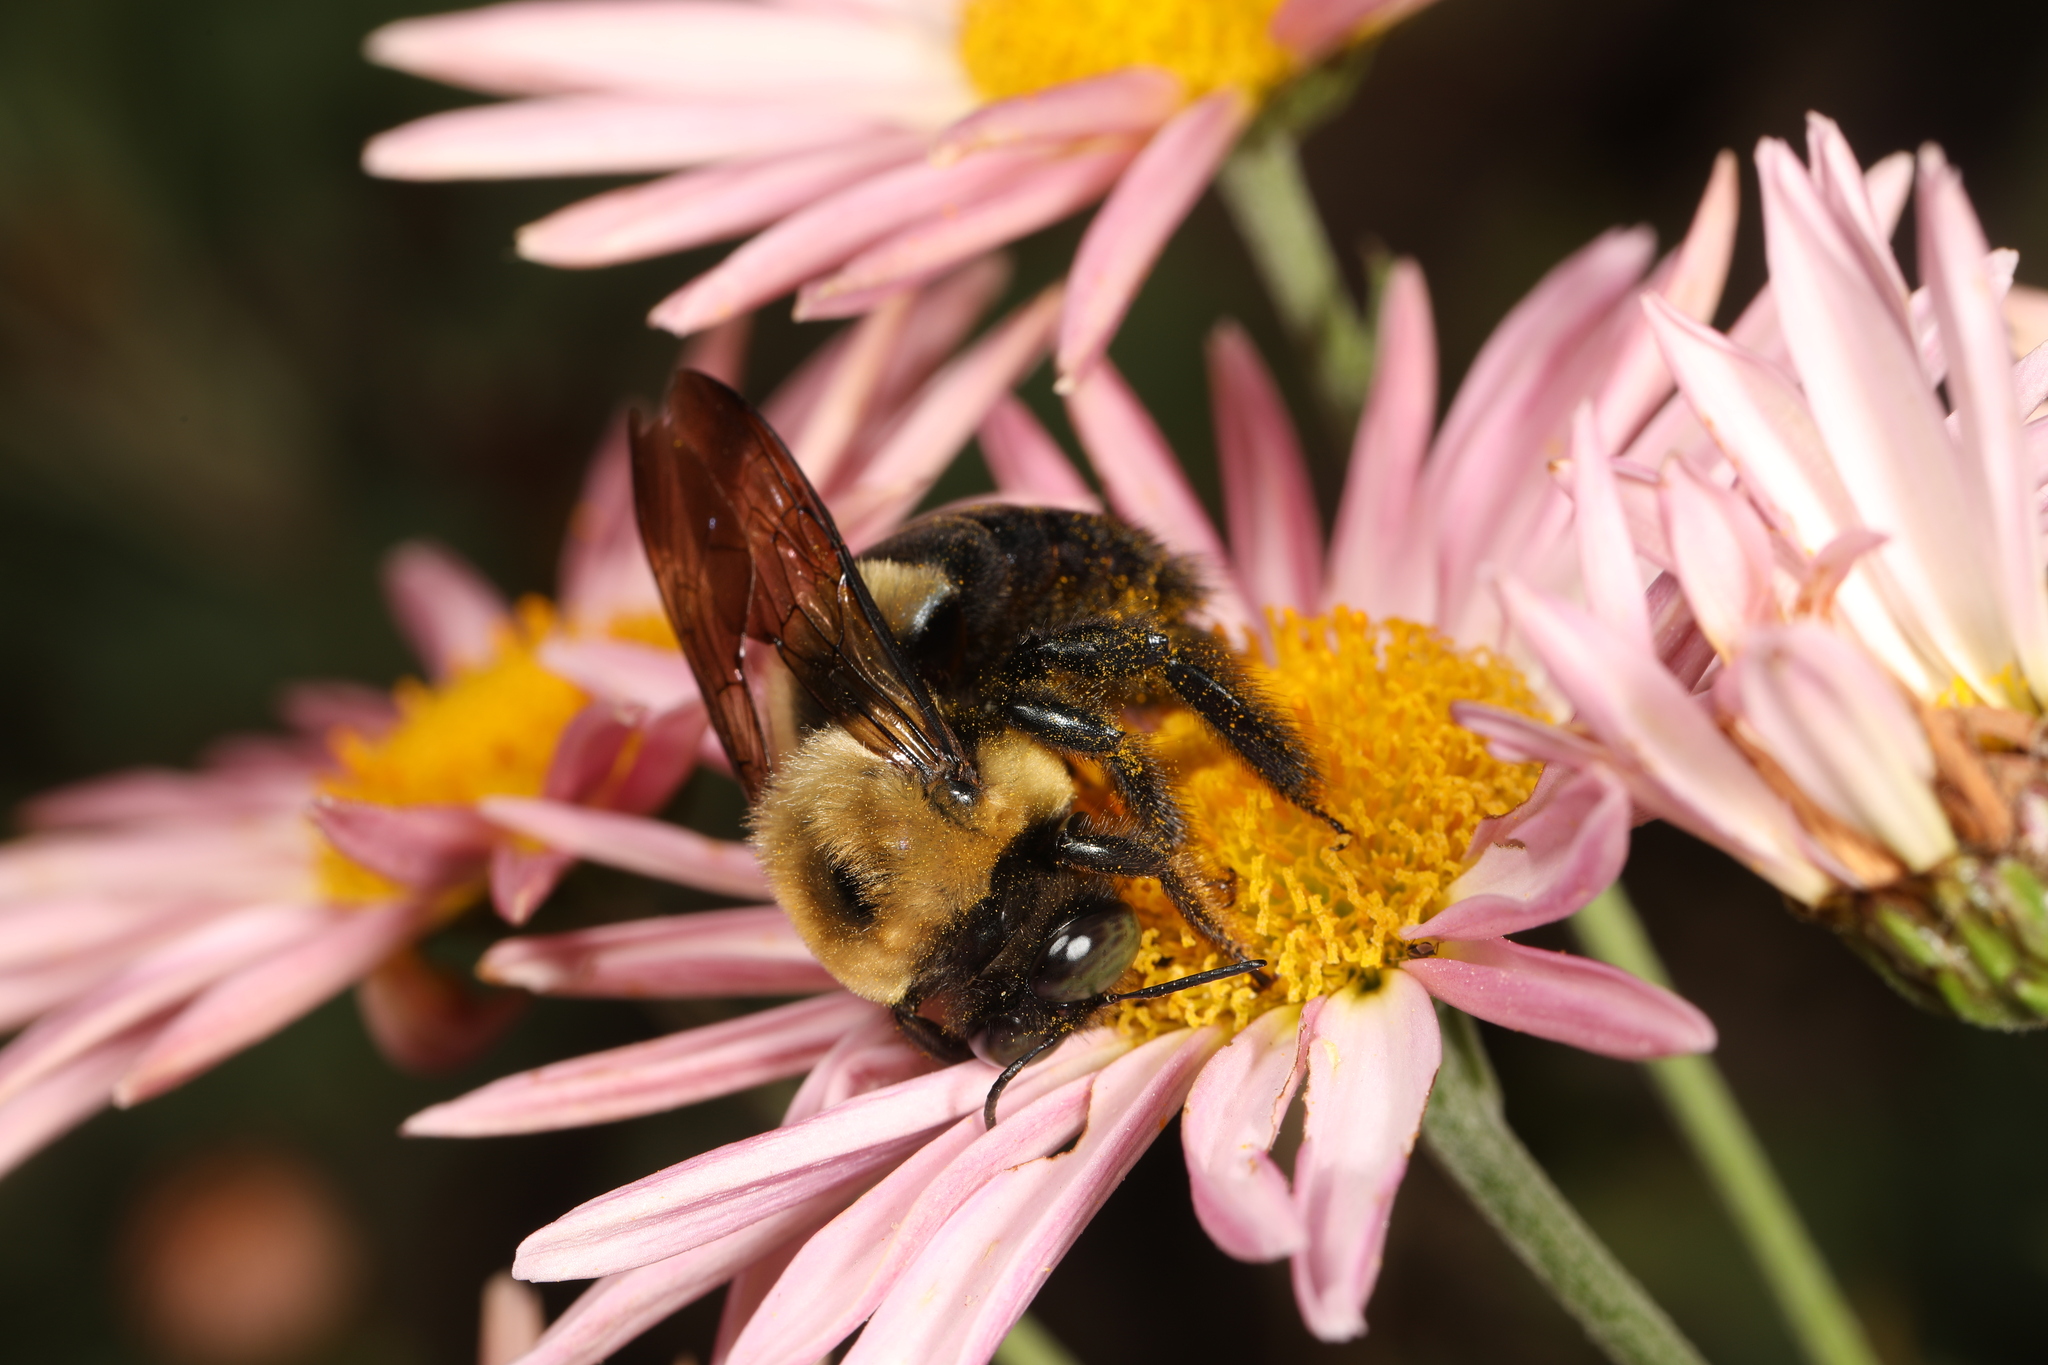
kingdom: Animalia
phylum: Arthropoda
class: Insecta
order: Hymenoptera
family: Apidae
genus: Xylocopa
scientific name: Xylocopa virginica
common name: Carpenter bee
